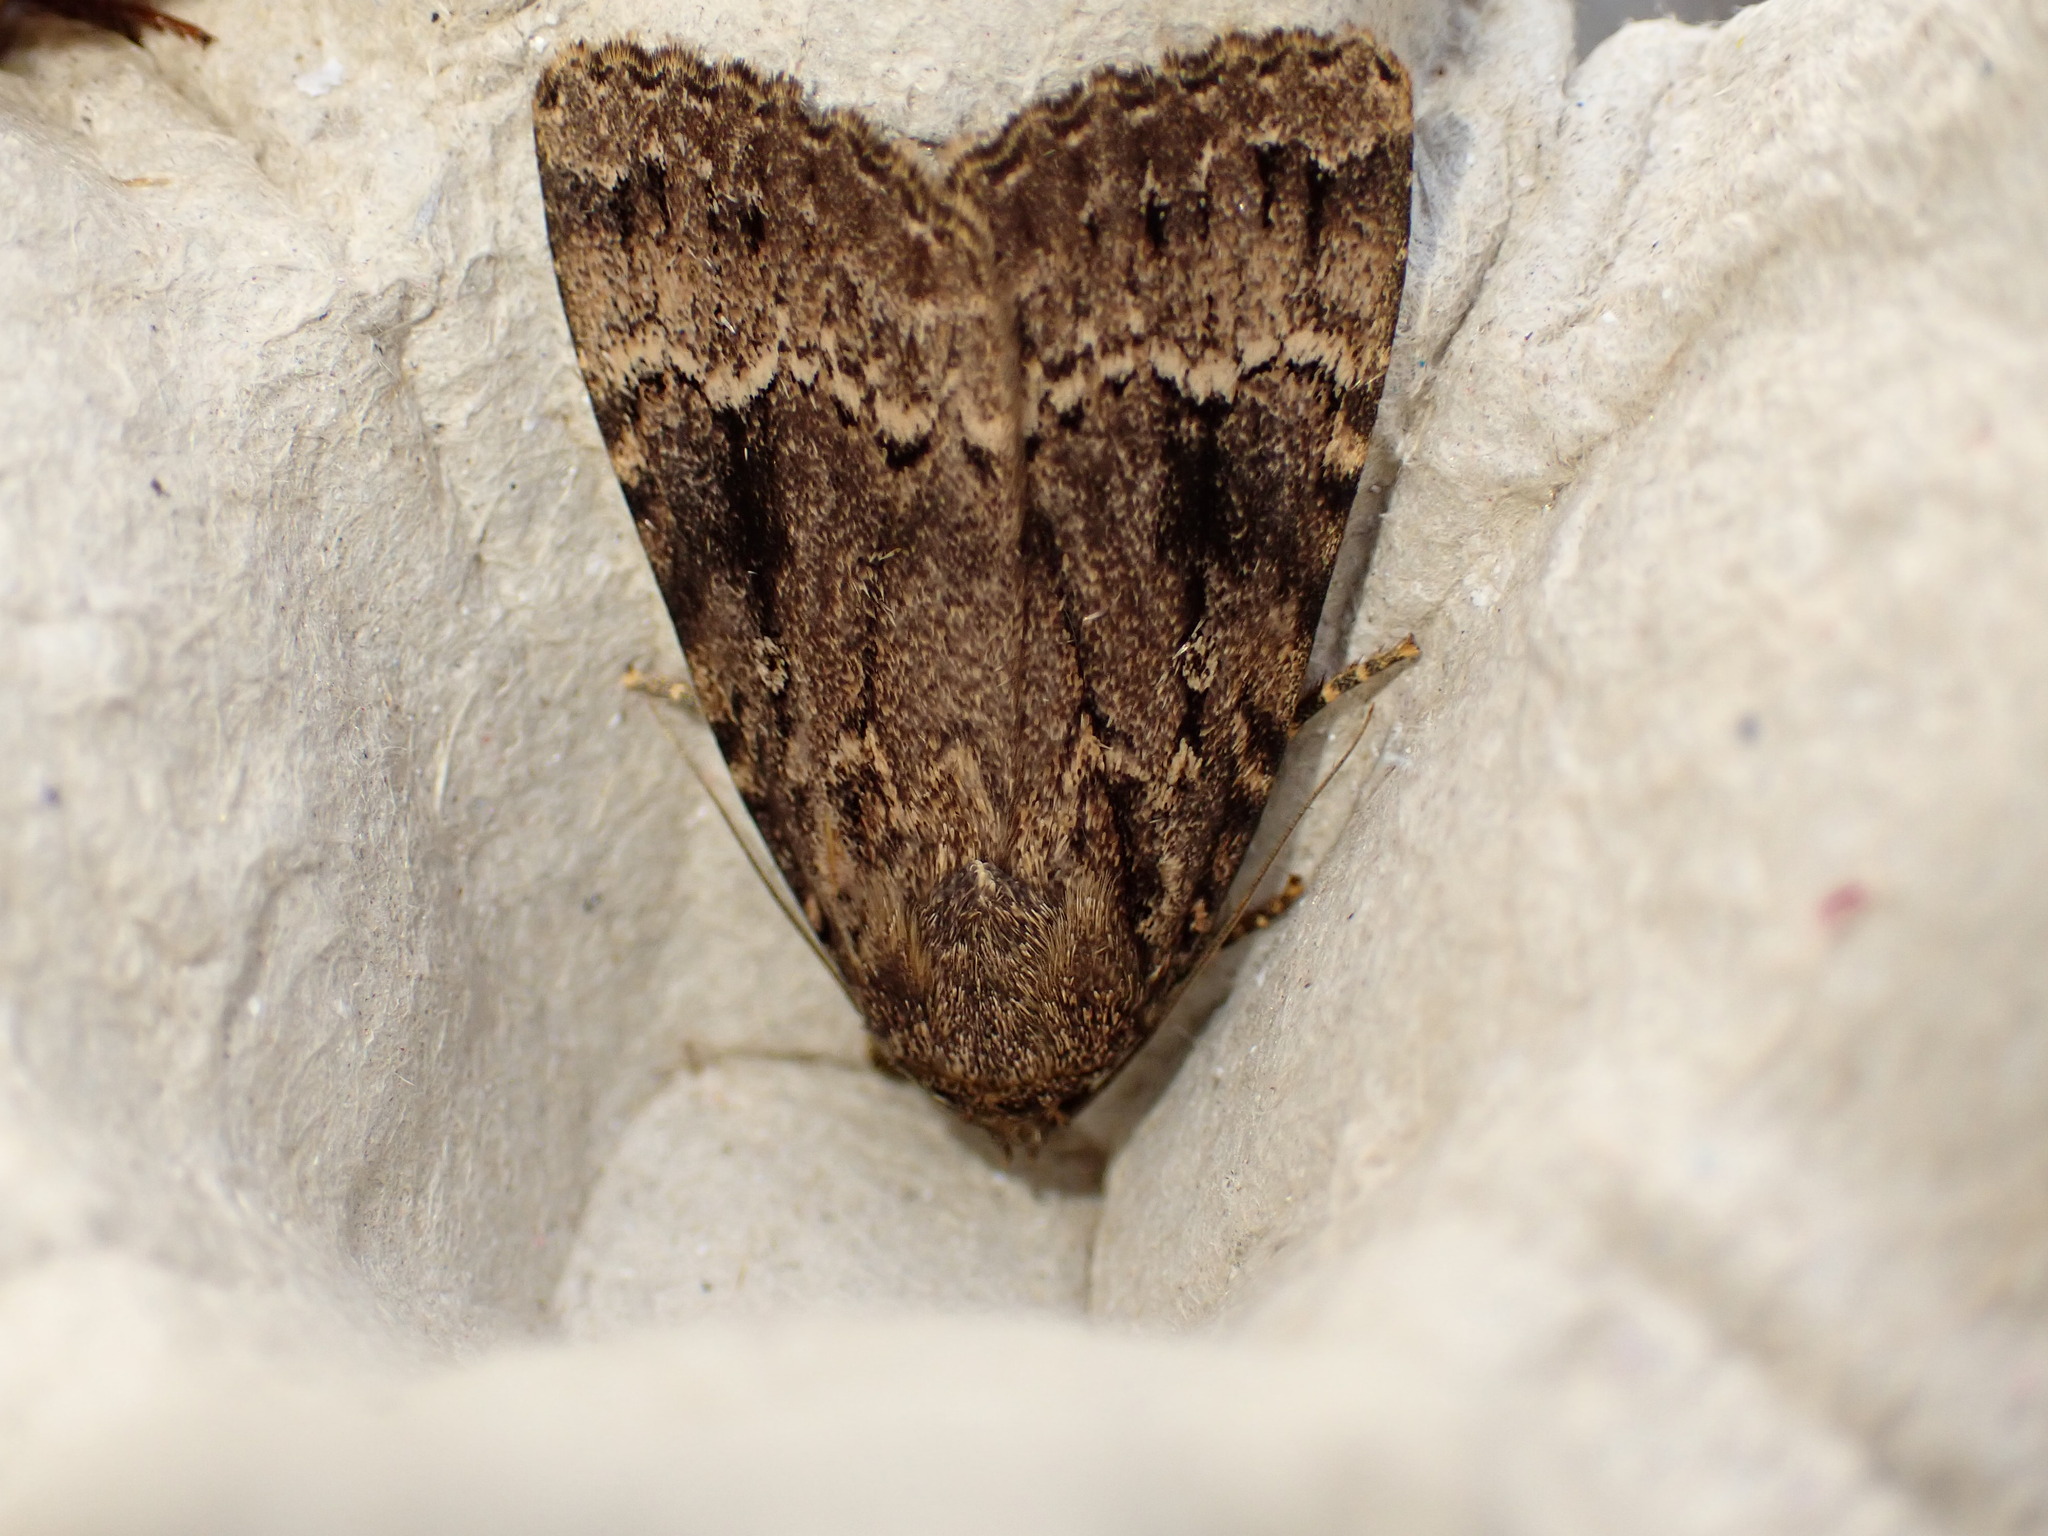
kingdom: Animalia
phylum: Arthropoda
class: Insecta
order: Lepidoptera
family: Noctuidae
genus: Amphipyra
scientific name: Amphipyra pyramidea
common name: Copper underwing
